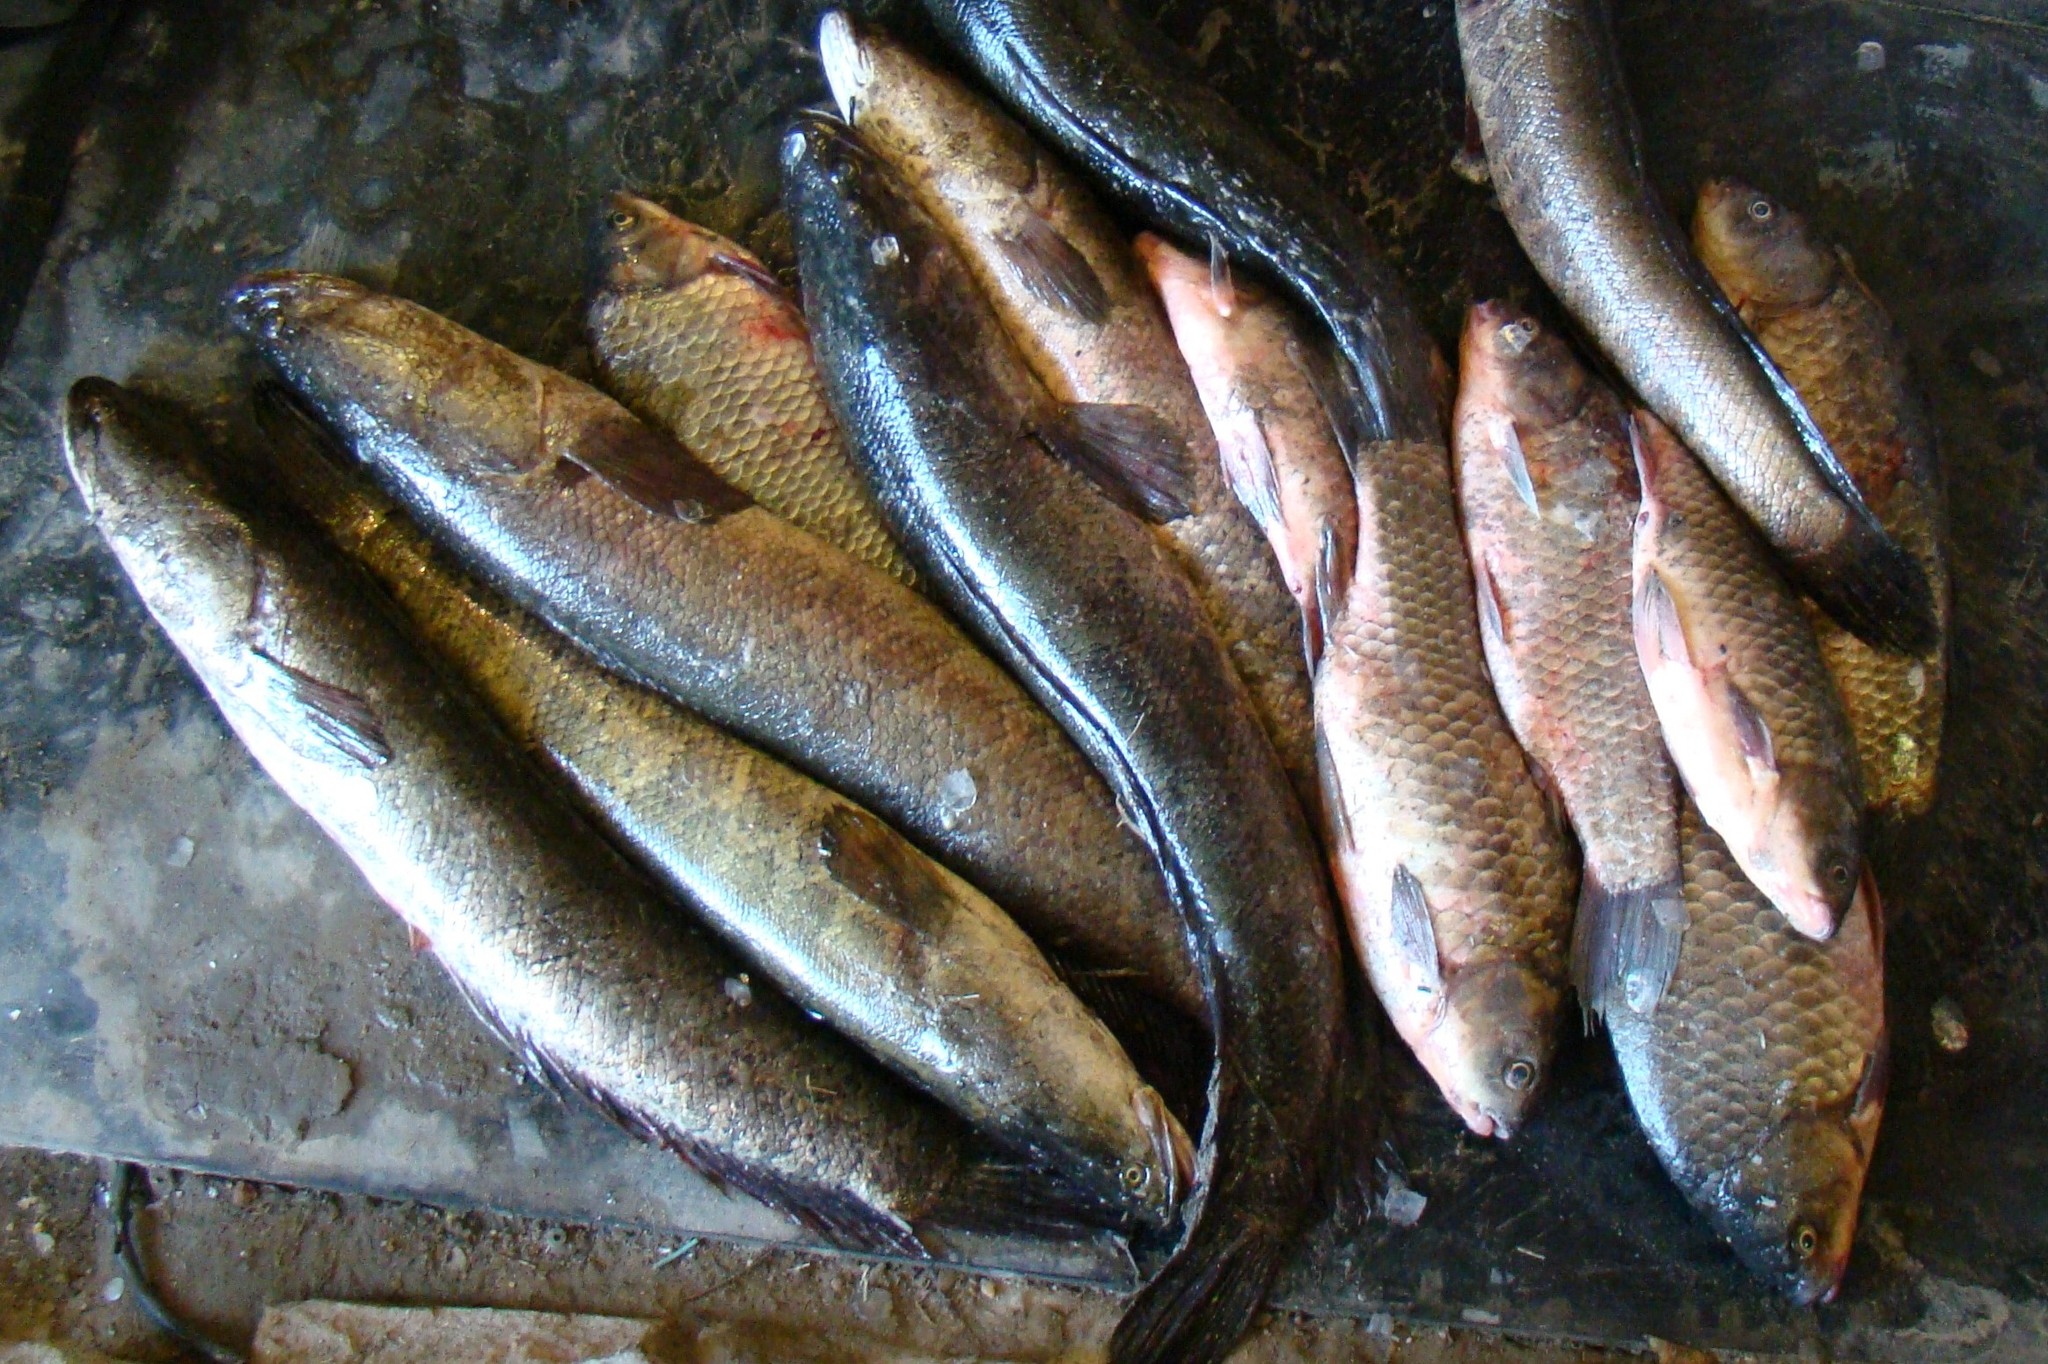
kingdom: Animalia
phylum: Chordata
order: Perciformes
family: Channidae
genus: Channa
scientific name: Channa argus
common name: Northern snakehead
